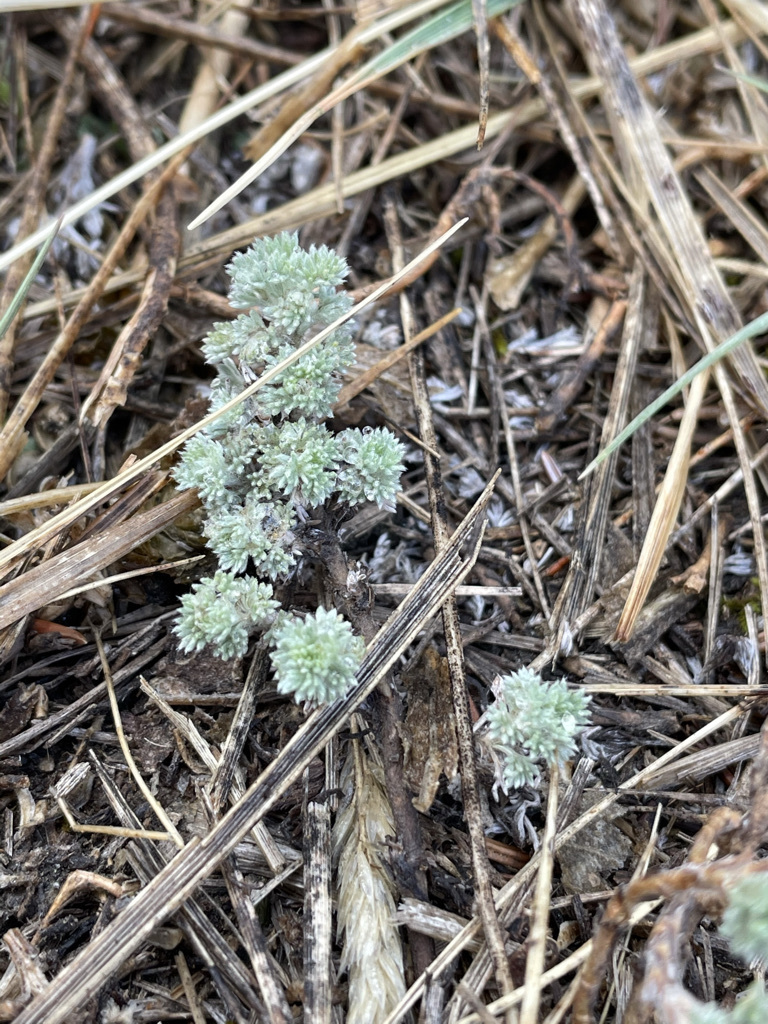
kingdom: Plantae
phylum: Tracheophyta
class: Magnoliopsida
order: Asterales
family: Asteraceae
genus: Artemisia
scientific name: Artemisia frigida
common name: Prairie sagewort
